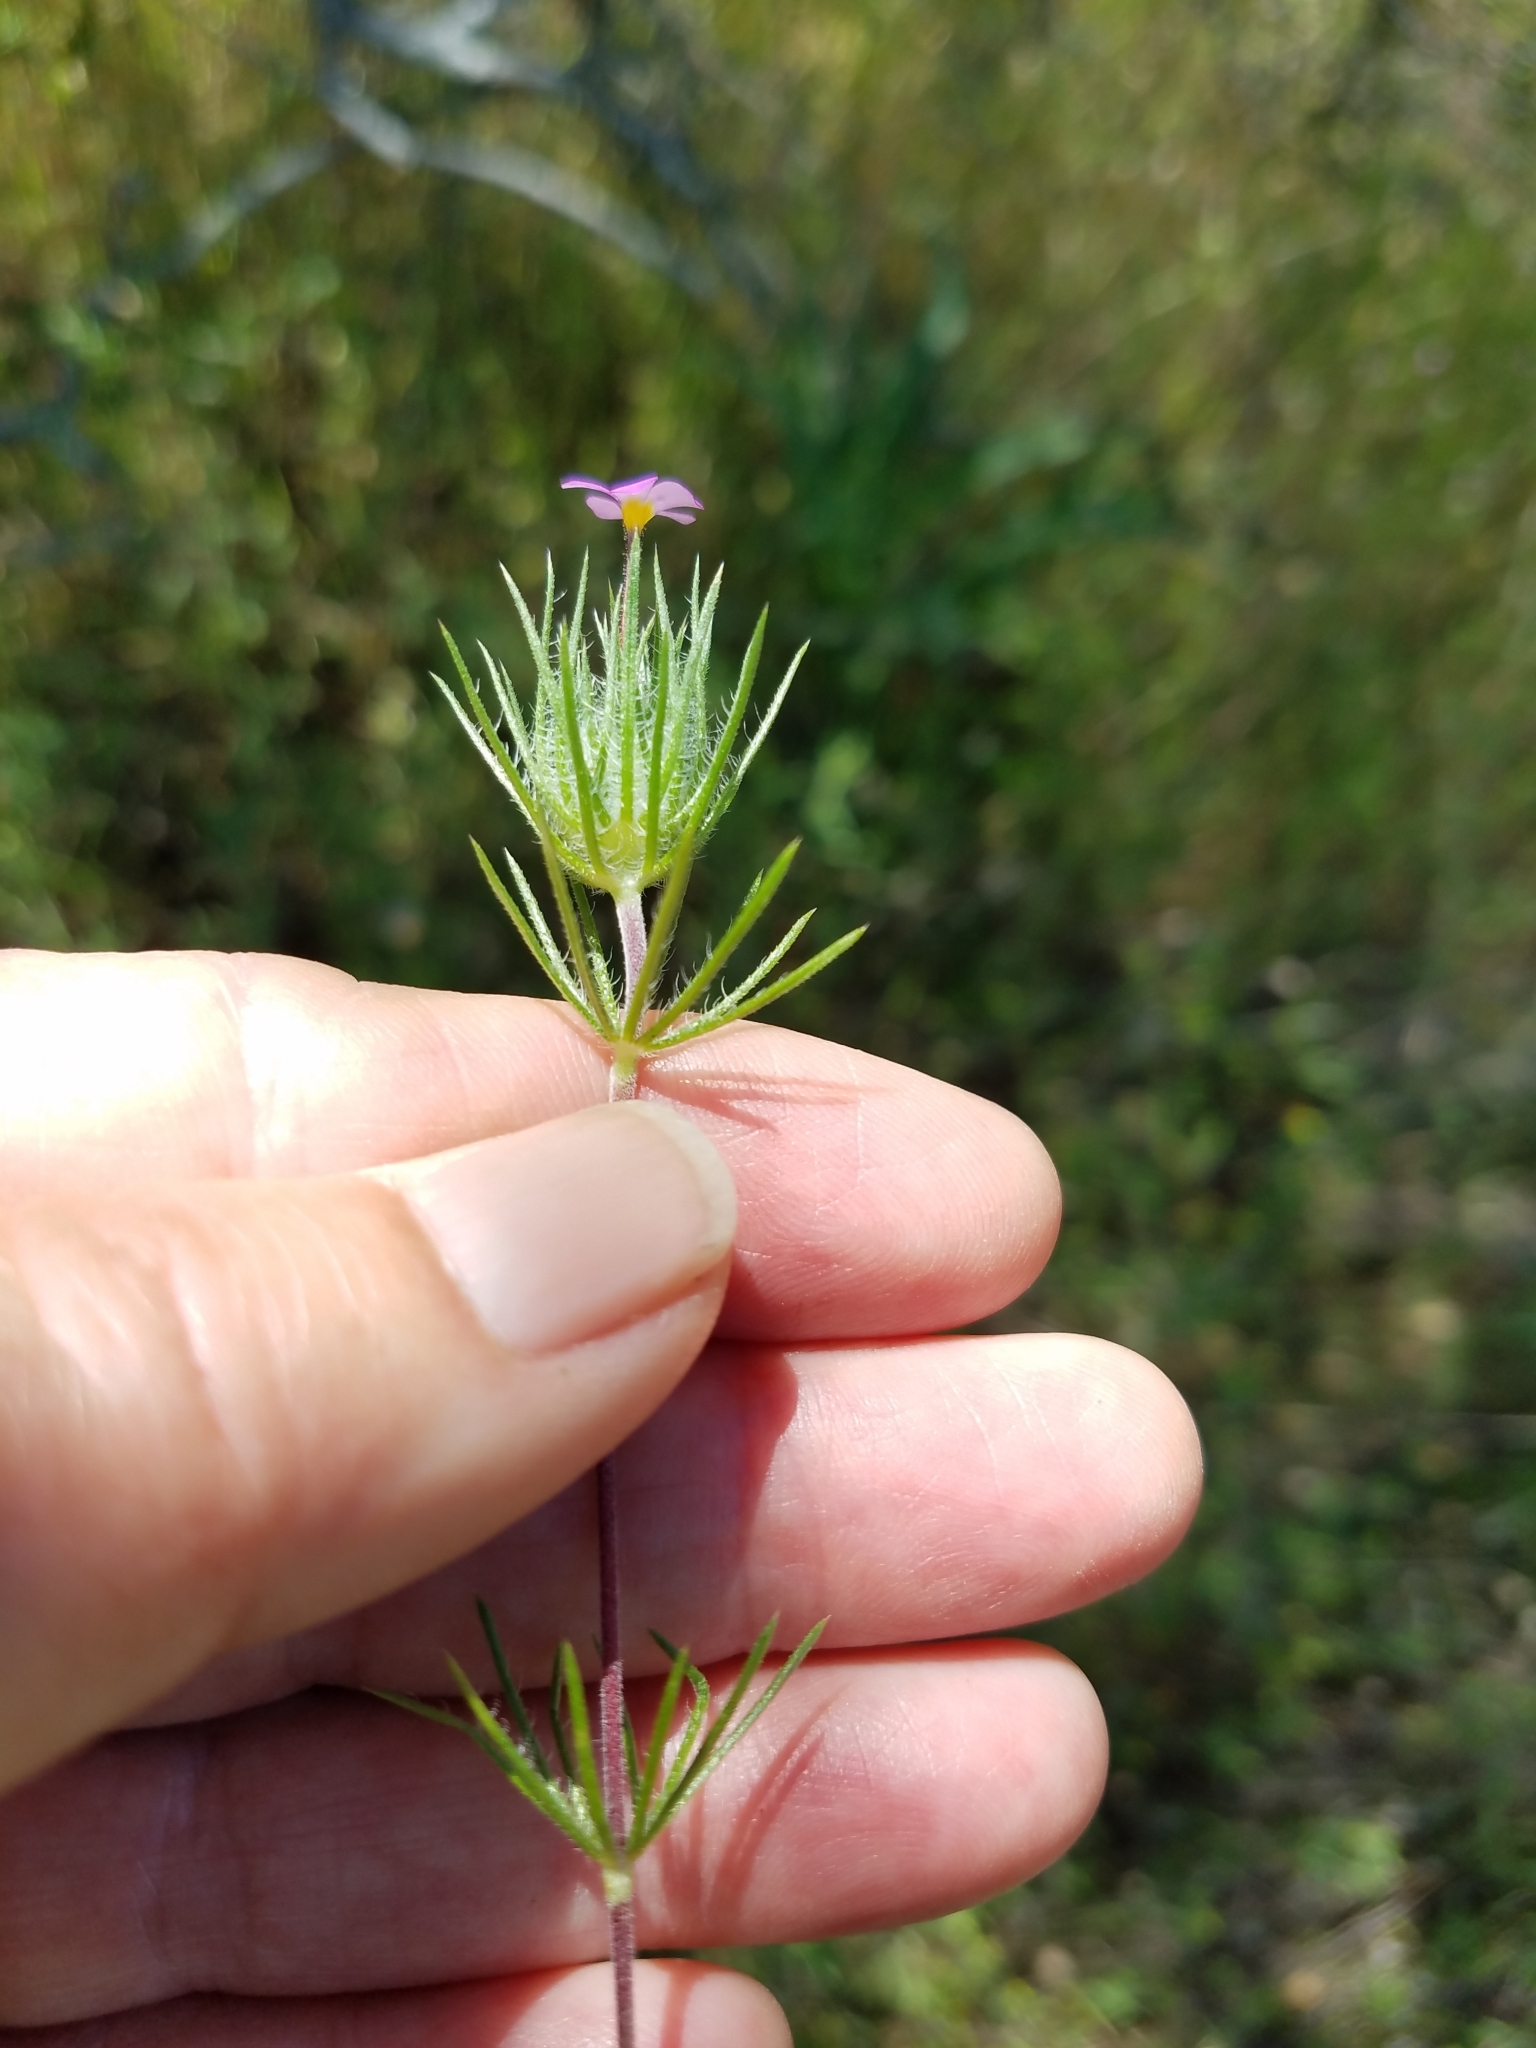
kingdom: Plantae
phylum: Tracheophyta
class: Magnoliopsida
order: Ericales
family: Polemoniaceae
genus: Leptosiphon
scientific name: Leptosiphon ciliatus
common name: Whiskerbrush
